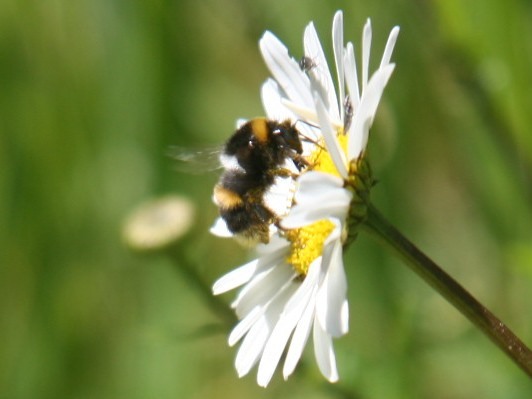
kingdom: Animalia
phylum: Arthropoda
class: Insecta
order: Hymenoptera
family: Apidae
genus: Bombus
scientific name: Bombus terrestris
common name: Buff-tailed bumblebee
